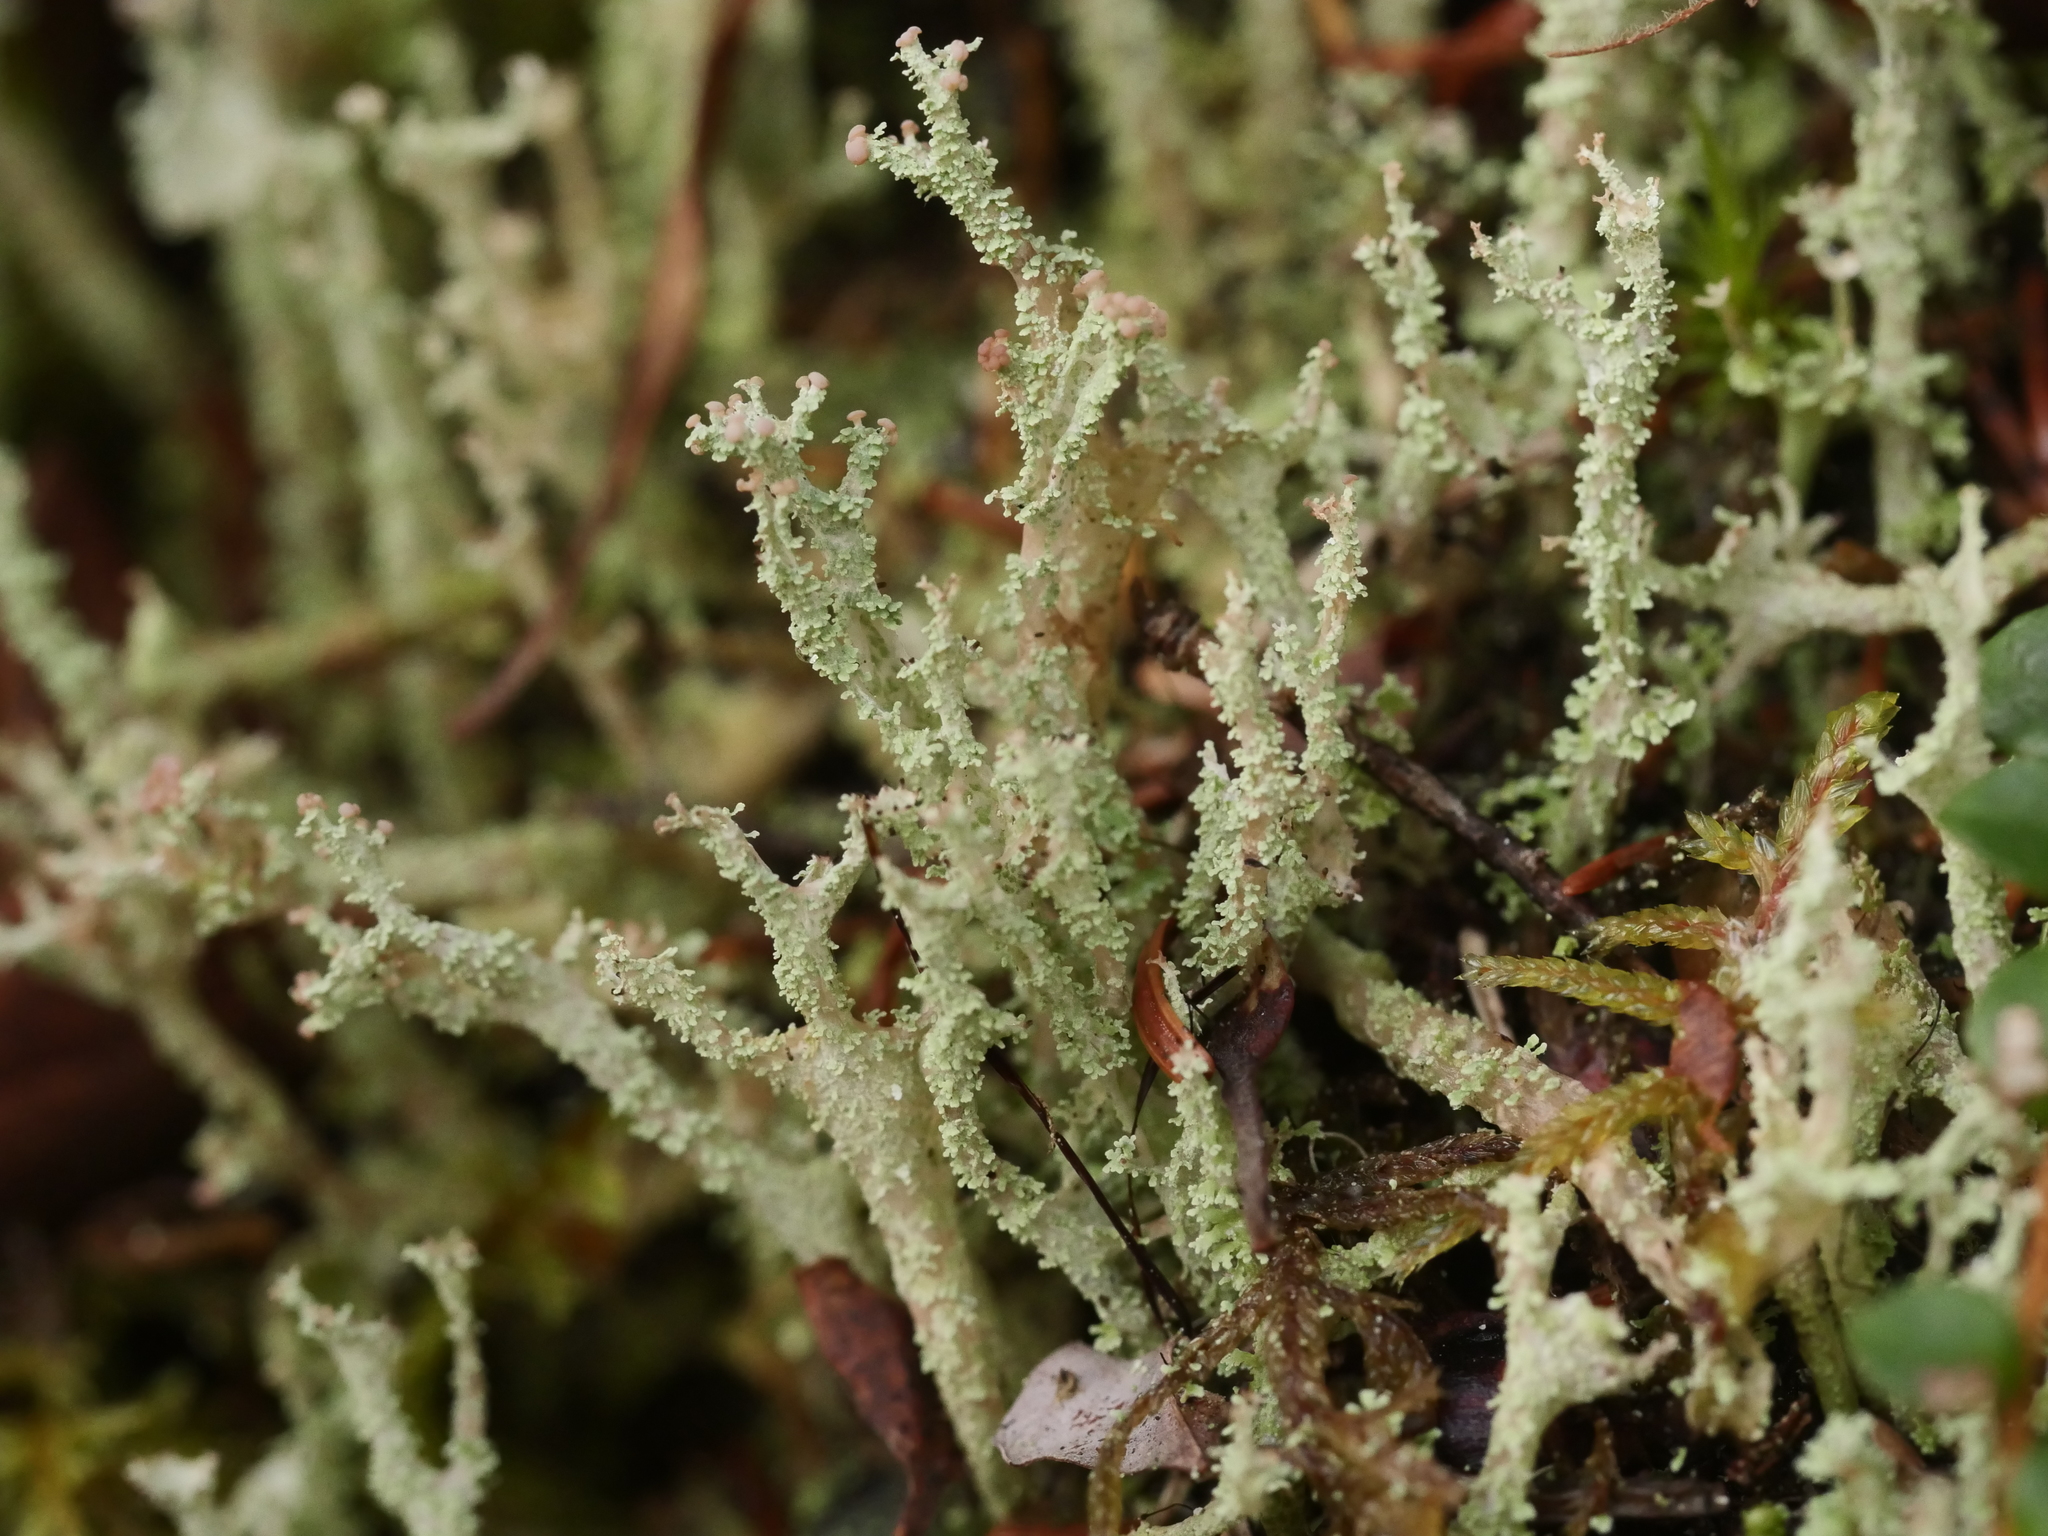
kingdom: Fungi
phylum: Ascomycota
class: Lecanoromycetes
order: Lecanorales
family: Cladoniaceae
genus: Cladonia
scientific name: Cladonia squamosa
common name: Dragon horn
